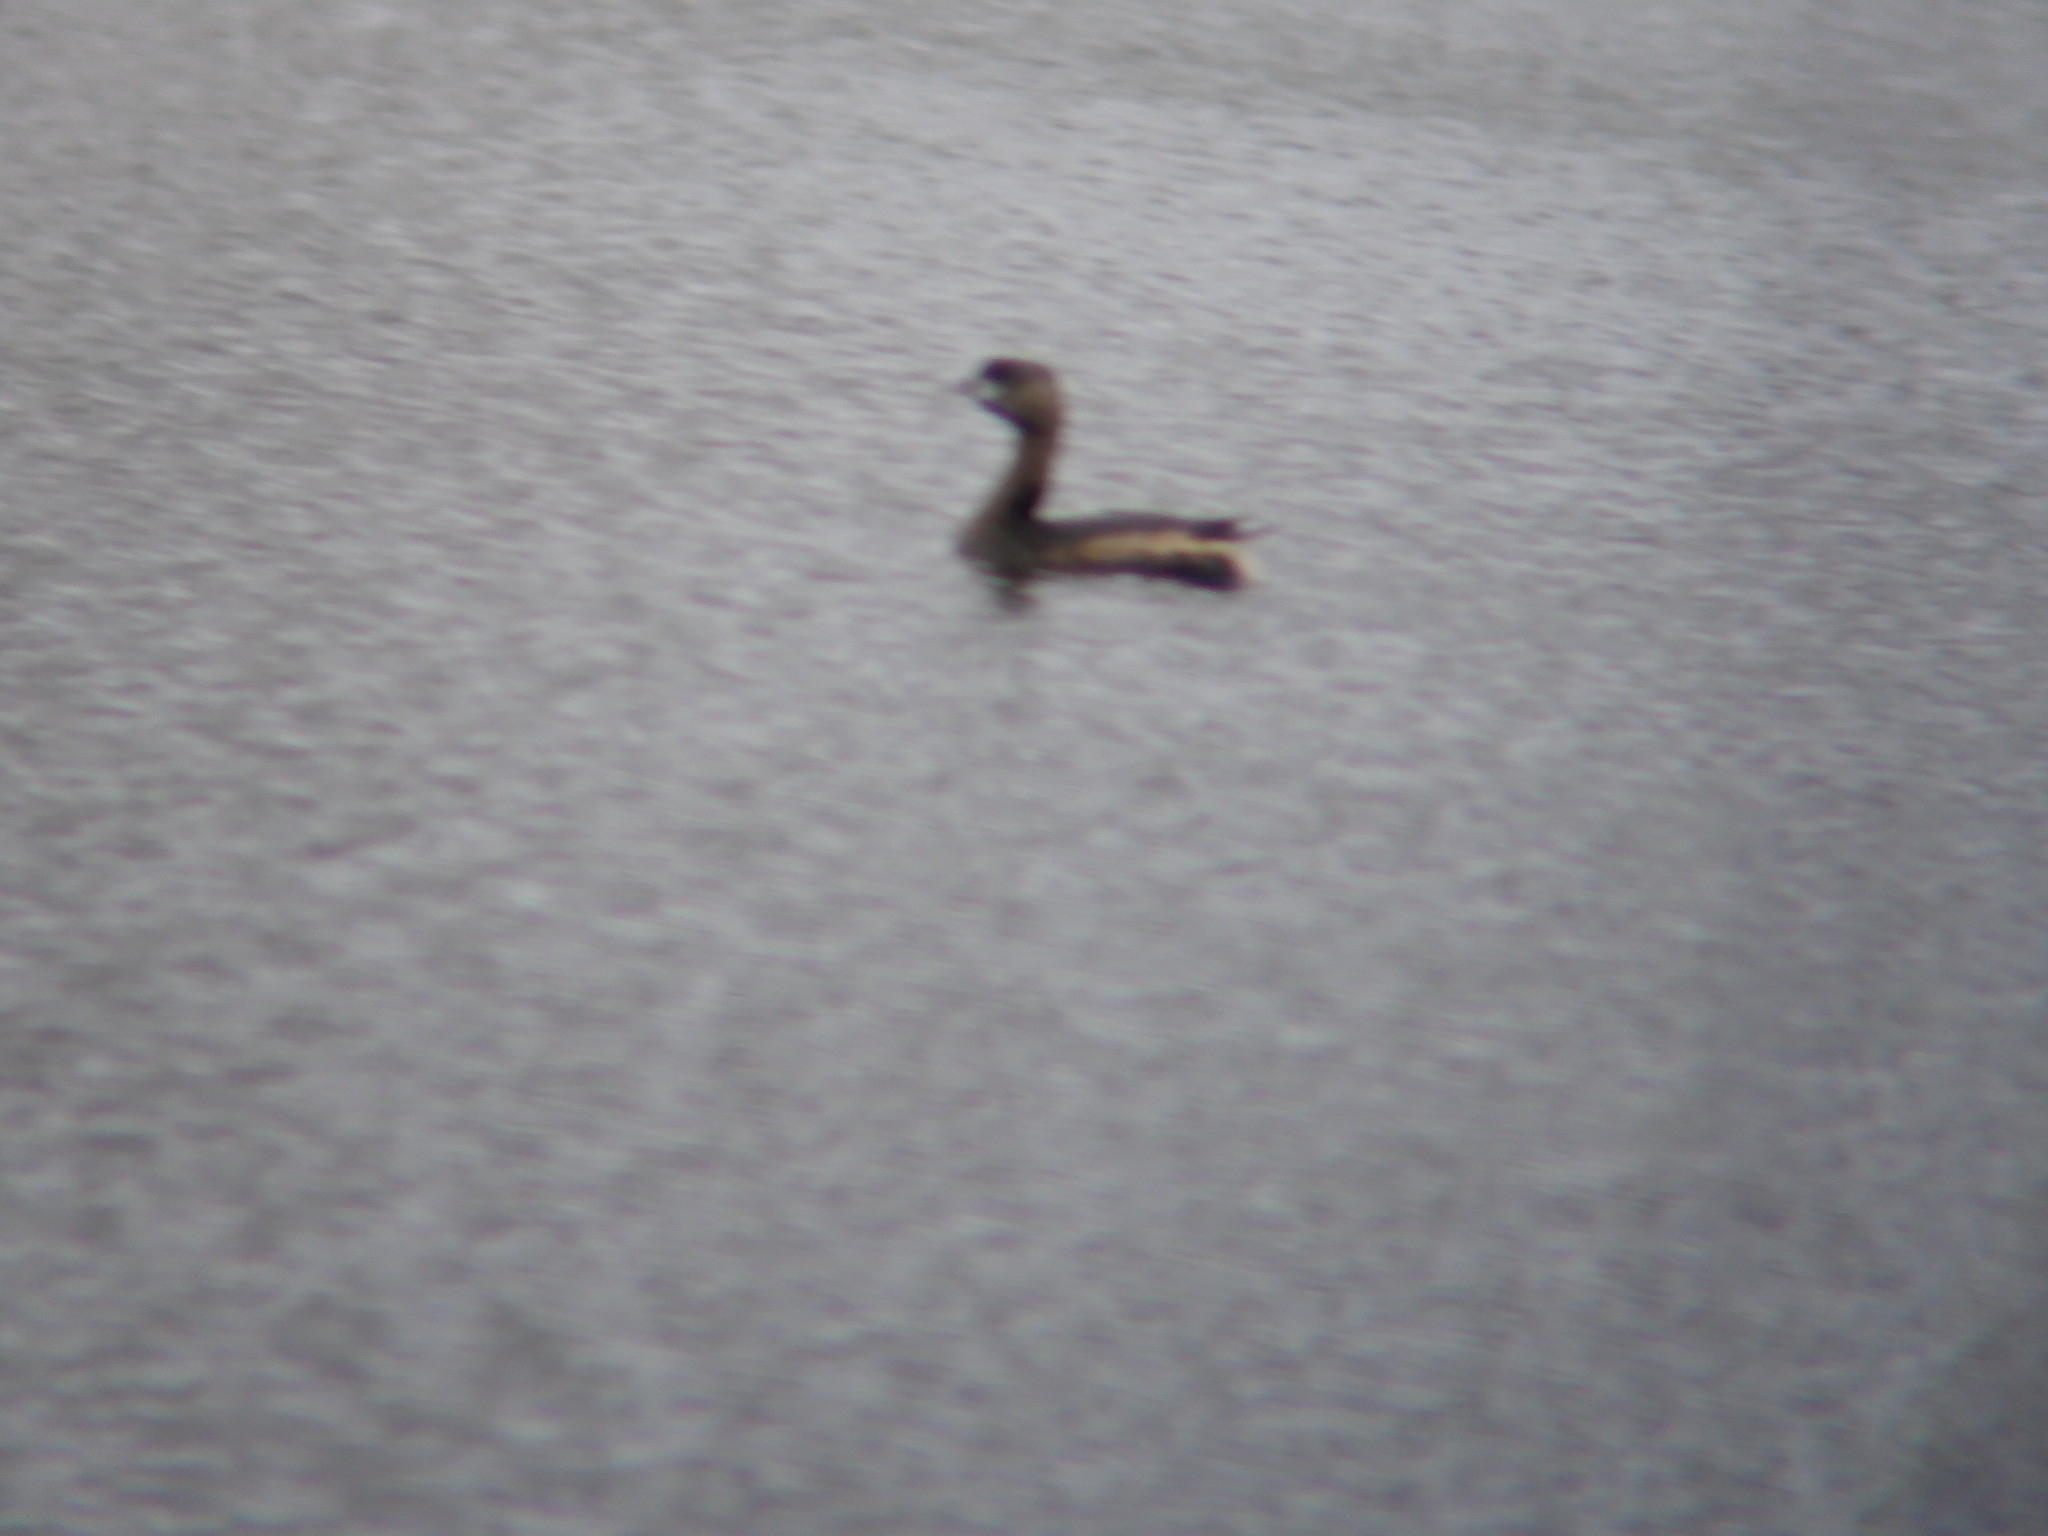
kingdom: Animalia
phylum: Chordata
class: Aves
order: Podicipediformes
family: Podicipedidae
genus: Podilymbus
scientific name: Podilymbus podiceps
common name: Pied-billed grebe
